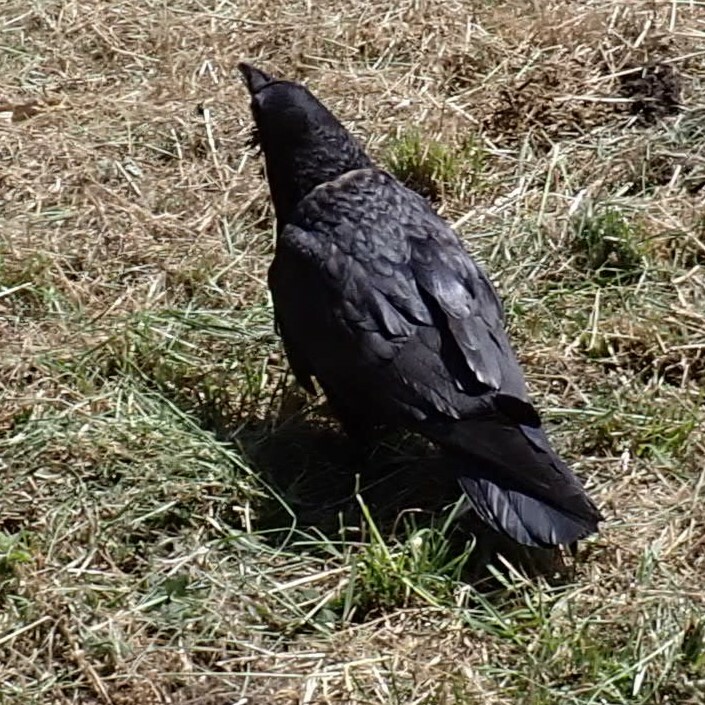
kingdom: Animalia
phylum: Chordata
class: Aves
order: Passeriformes
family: Corvidae
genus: Corvus
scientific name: Corvus corax
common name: Common raven
